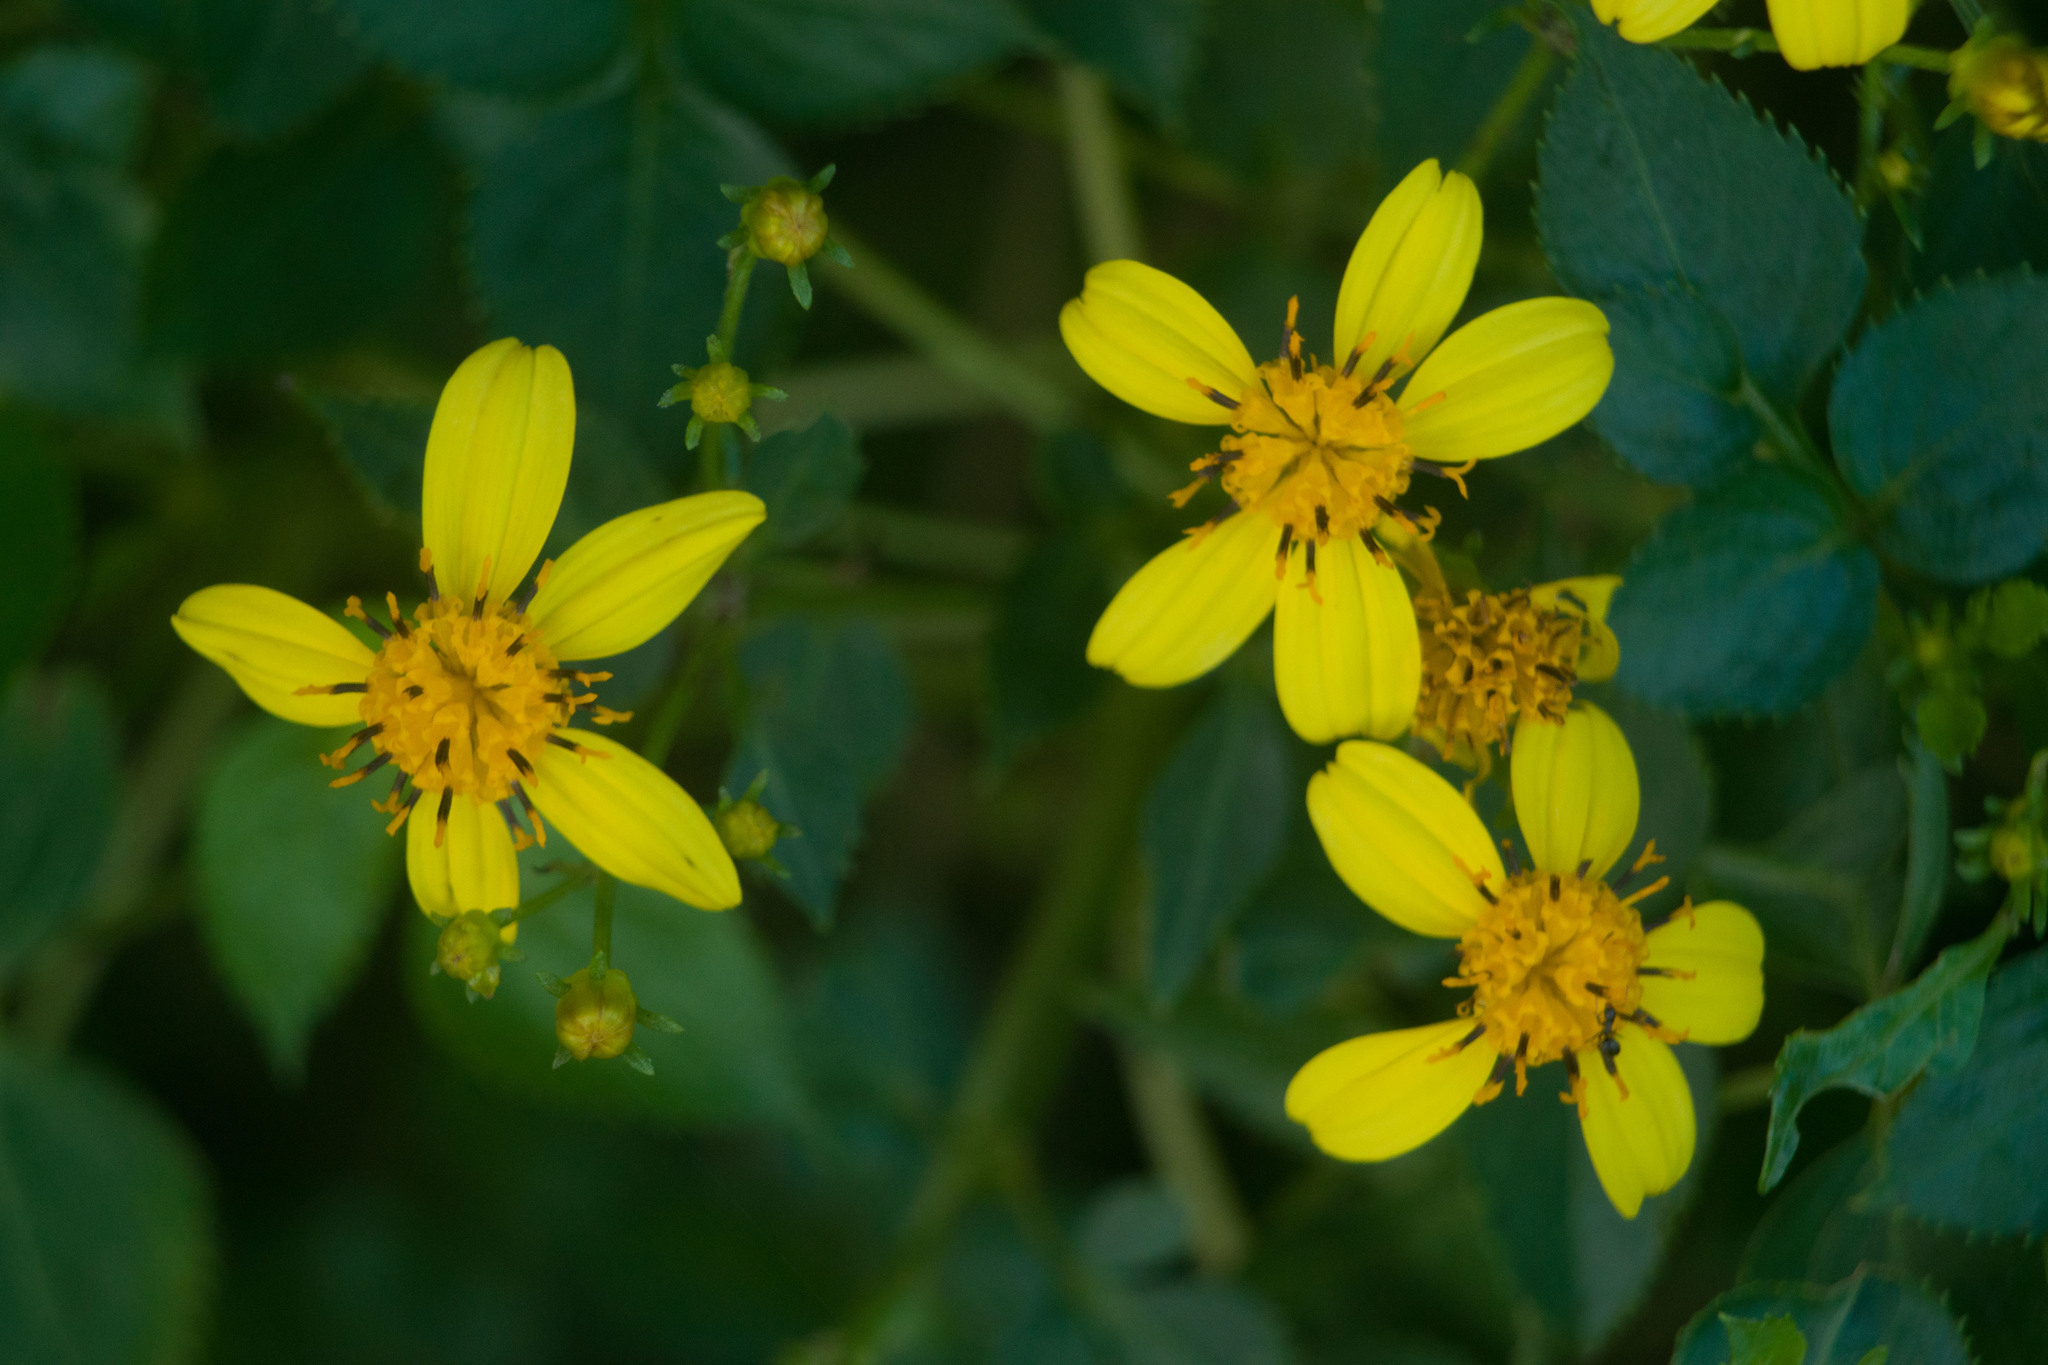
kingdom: Plantae
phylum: Tracheophyta
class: Magnoliopsida
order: Asterales
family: Asteraceae
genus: Bidens
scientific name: Bidens asymmetrica
